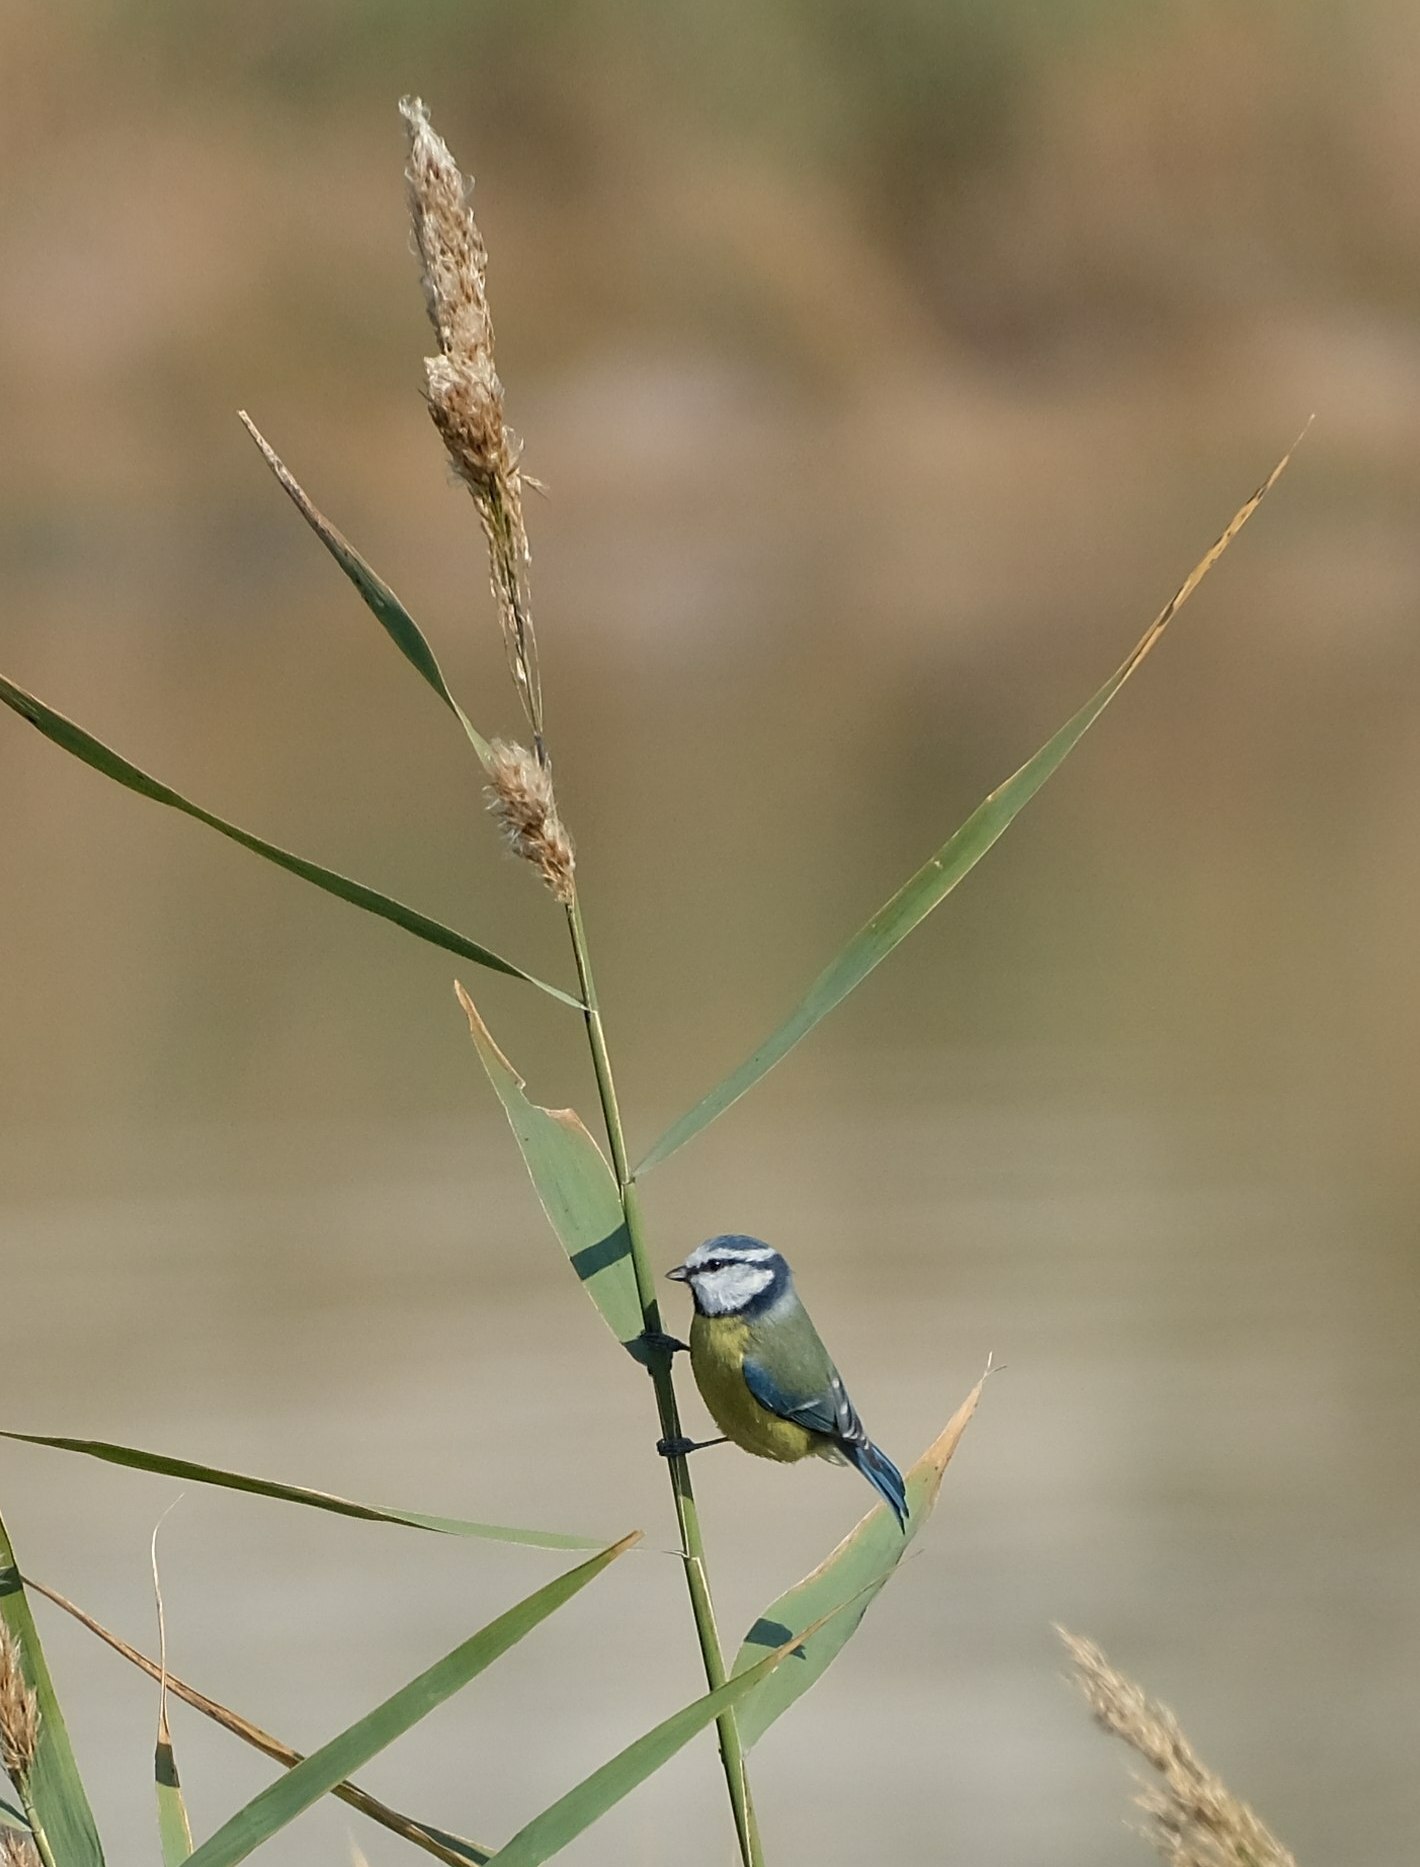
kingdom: Animalia
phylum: Chordata
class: Aves
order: Passeriformes
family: Paridae
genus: Cyanistes
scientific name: Cyanistes caeruleus
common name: Eurasian blue tit
